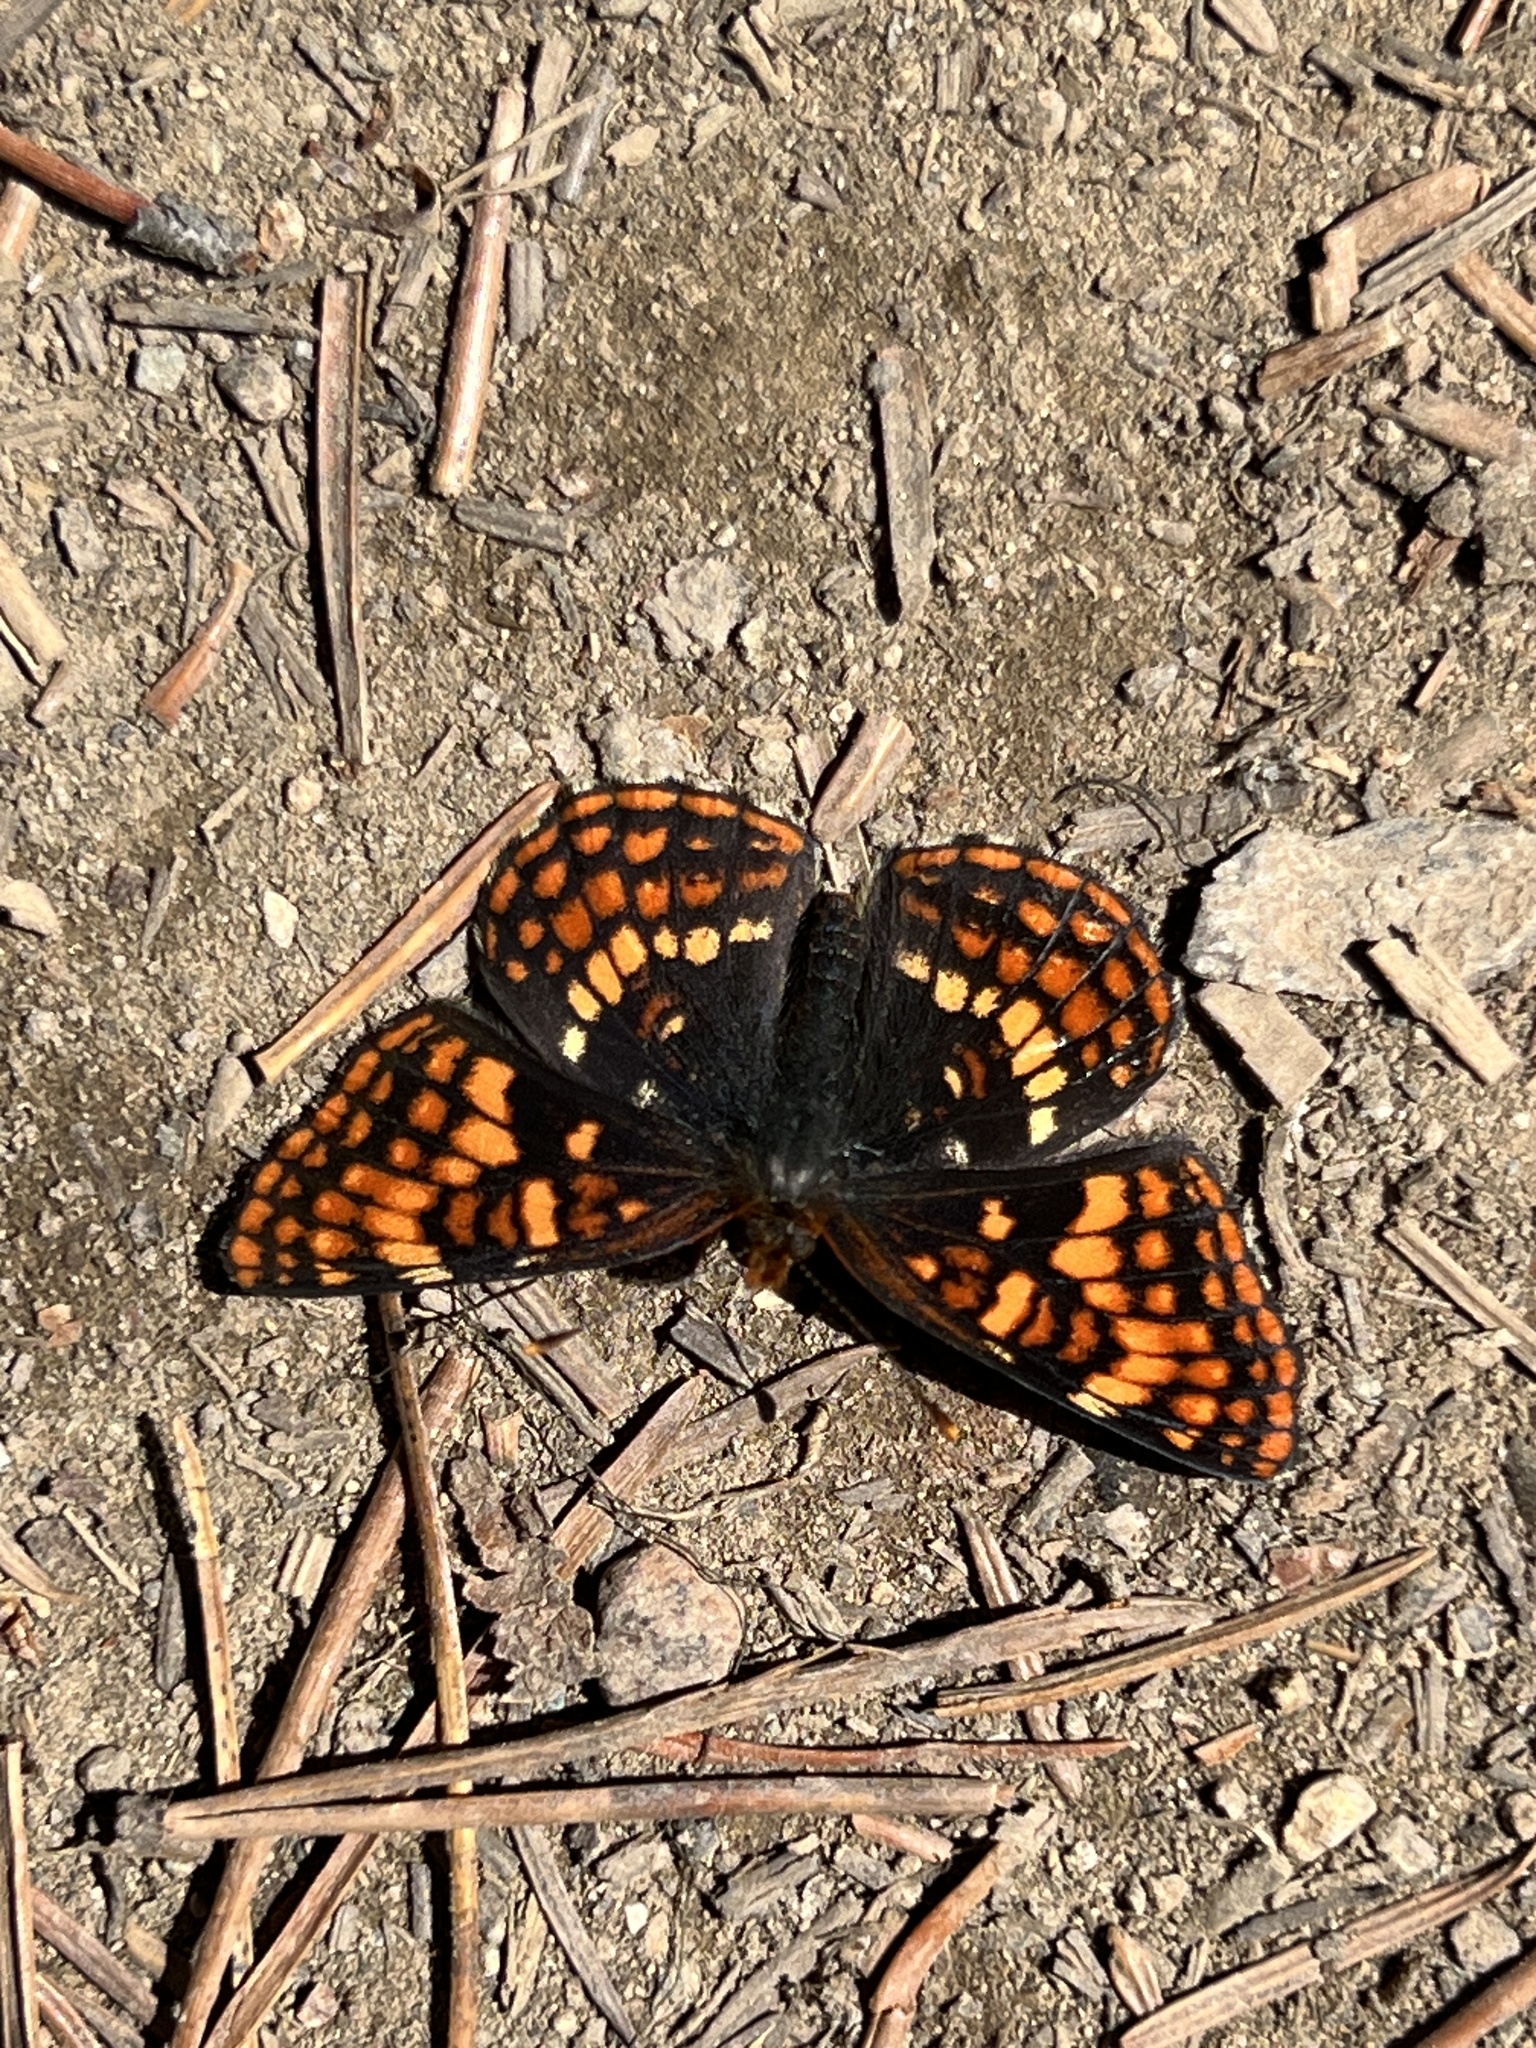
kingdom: Animalia
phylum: Arthropoda
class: Insecta
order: Lepidoptera
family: Nymphalidae
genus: Chlosyne
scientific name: Chlosyne hoffmanni
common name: Hoffmann's checkerspot
